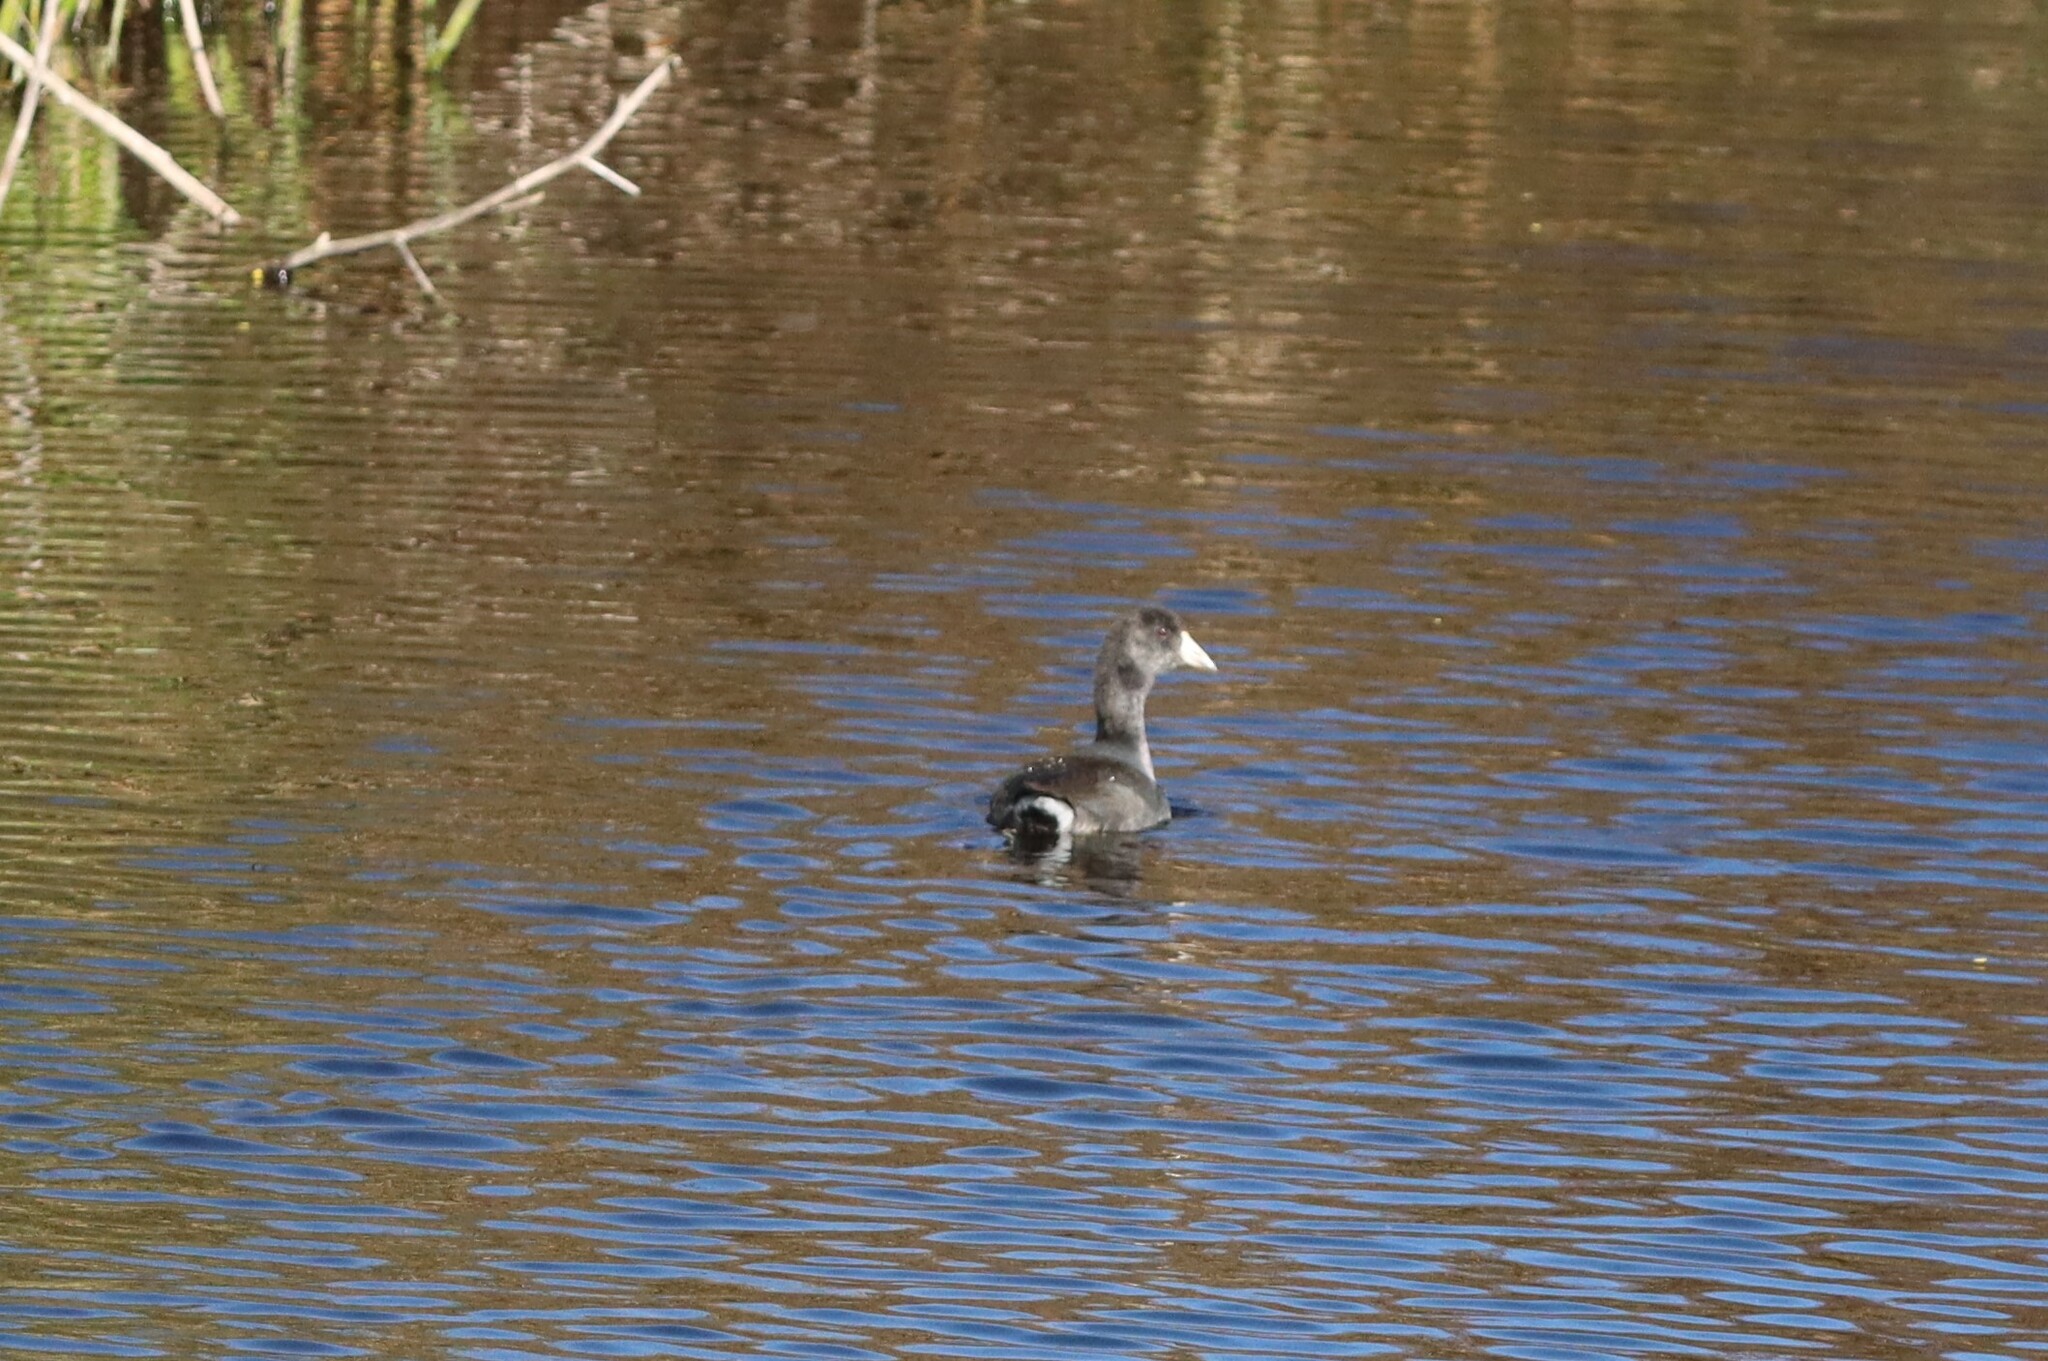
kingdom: Animalia
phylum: Chordata
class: Aves
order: Gruiformes
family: Rallidae
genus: Fulica
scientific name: Fulica americana
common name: American coot
